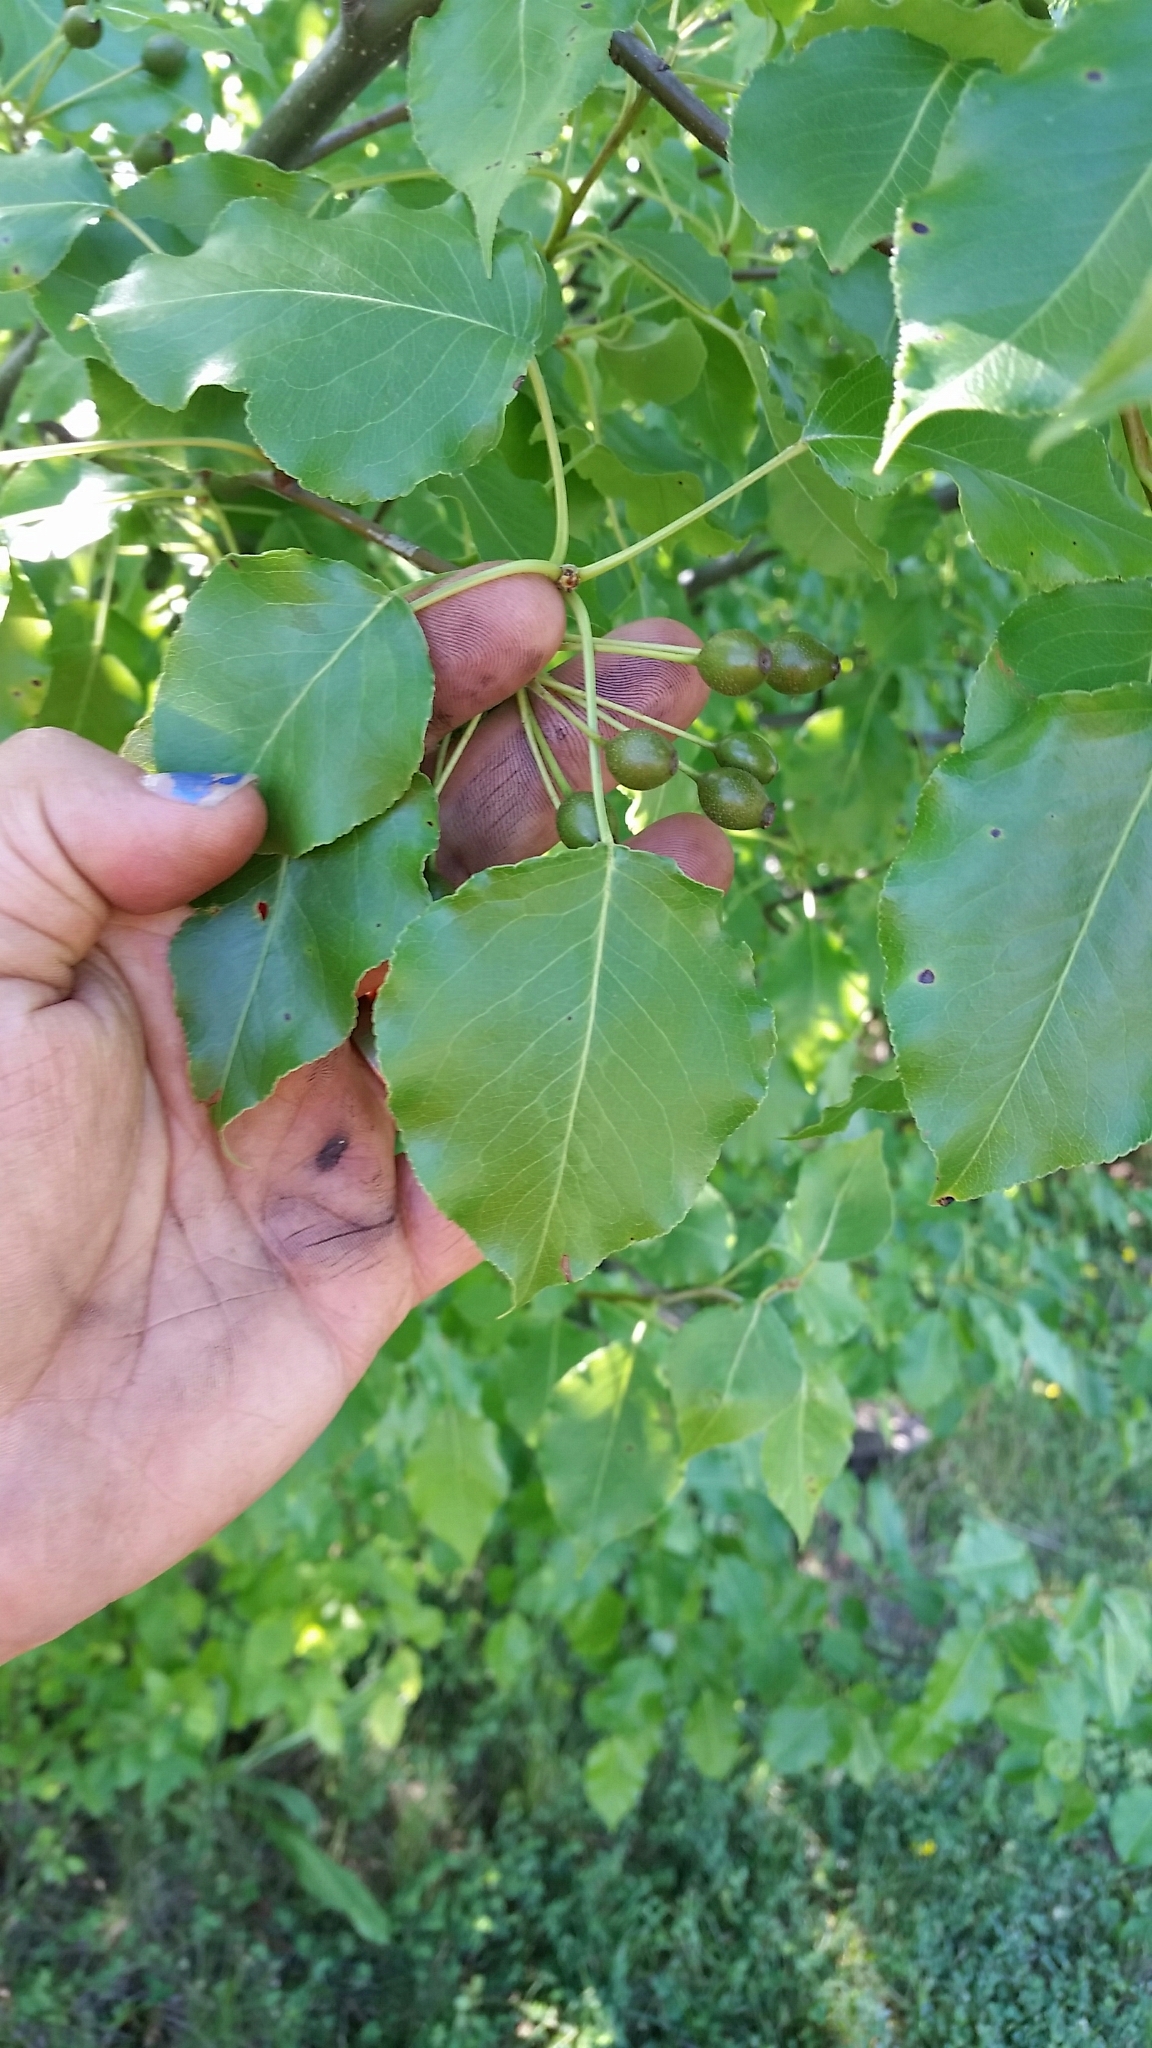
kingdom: Plantae
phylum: Tracheophyta
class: Magnoliopsida
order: Rosales
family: Rosaceae
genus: Pyrus
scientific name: Pyrus calleryana
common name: Callery pear
